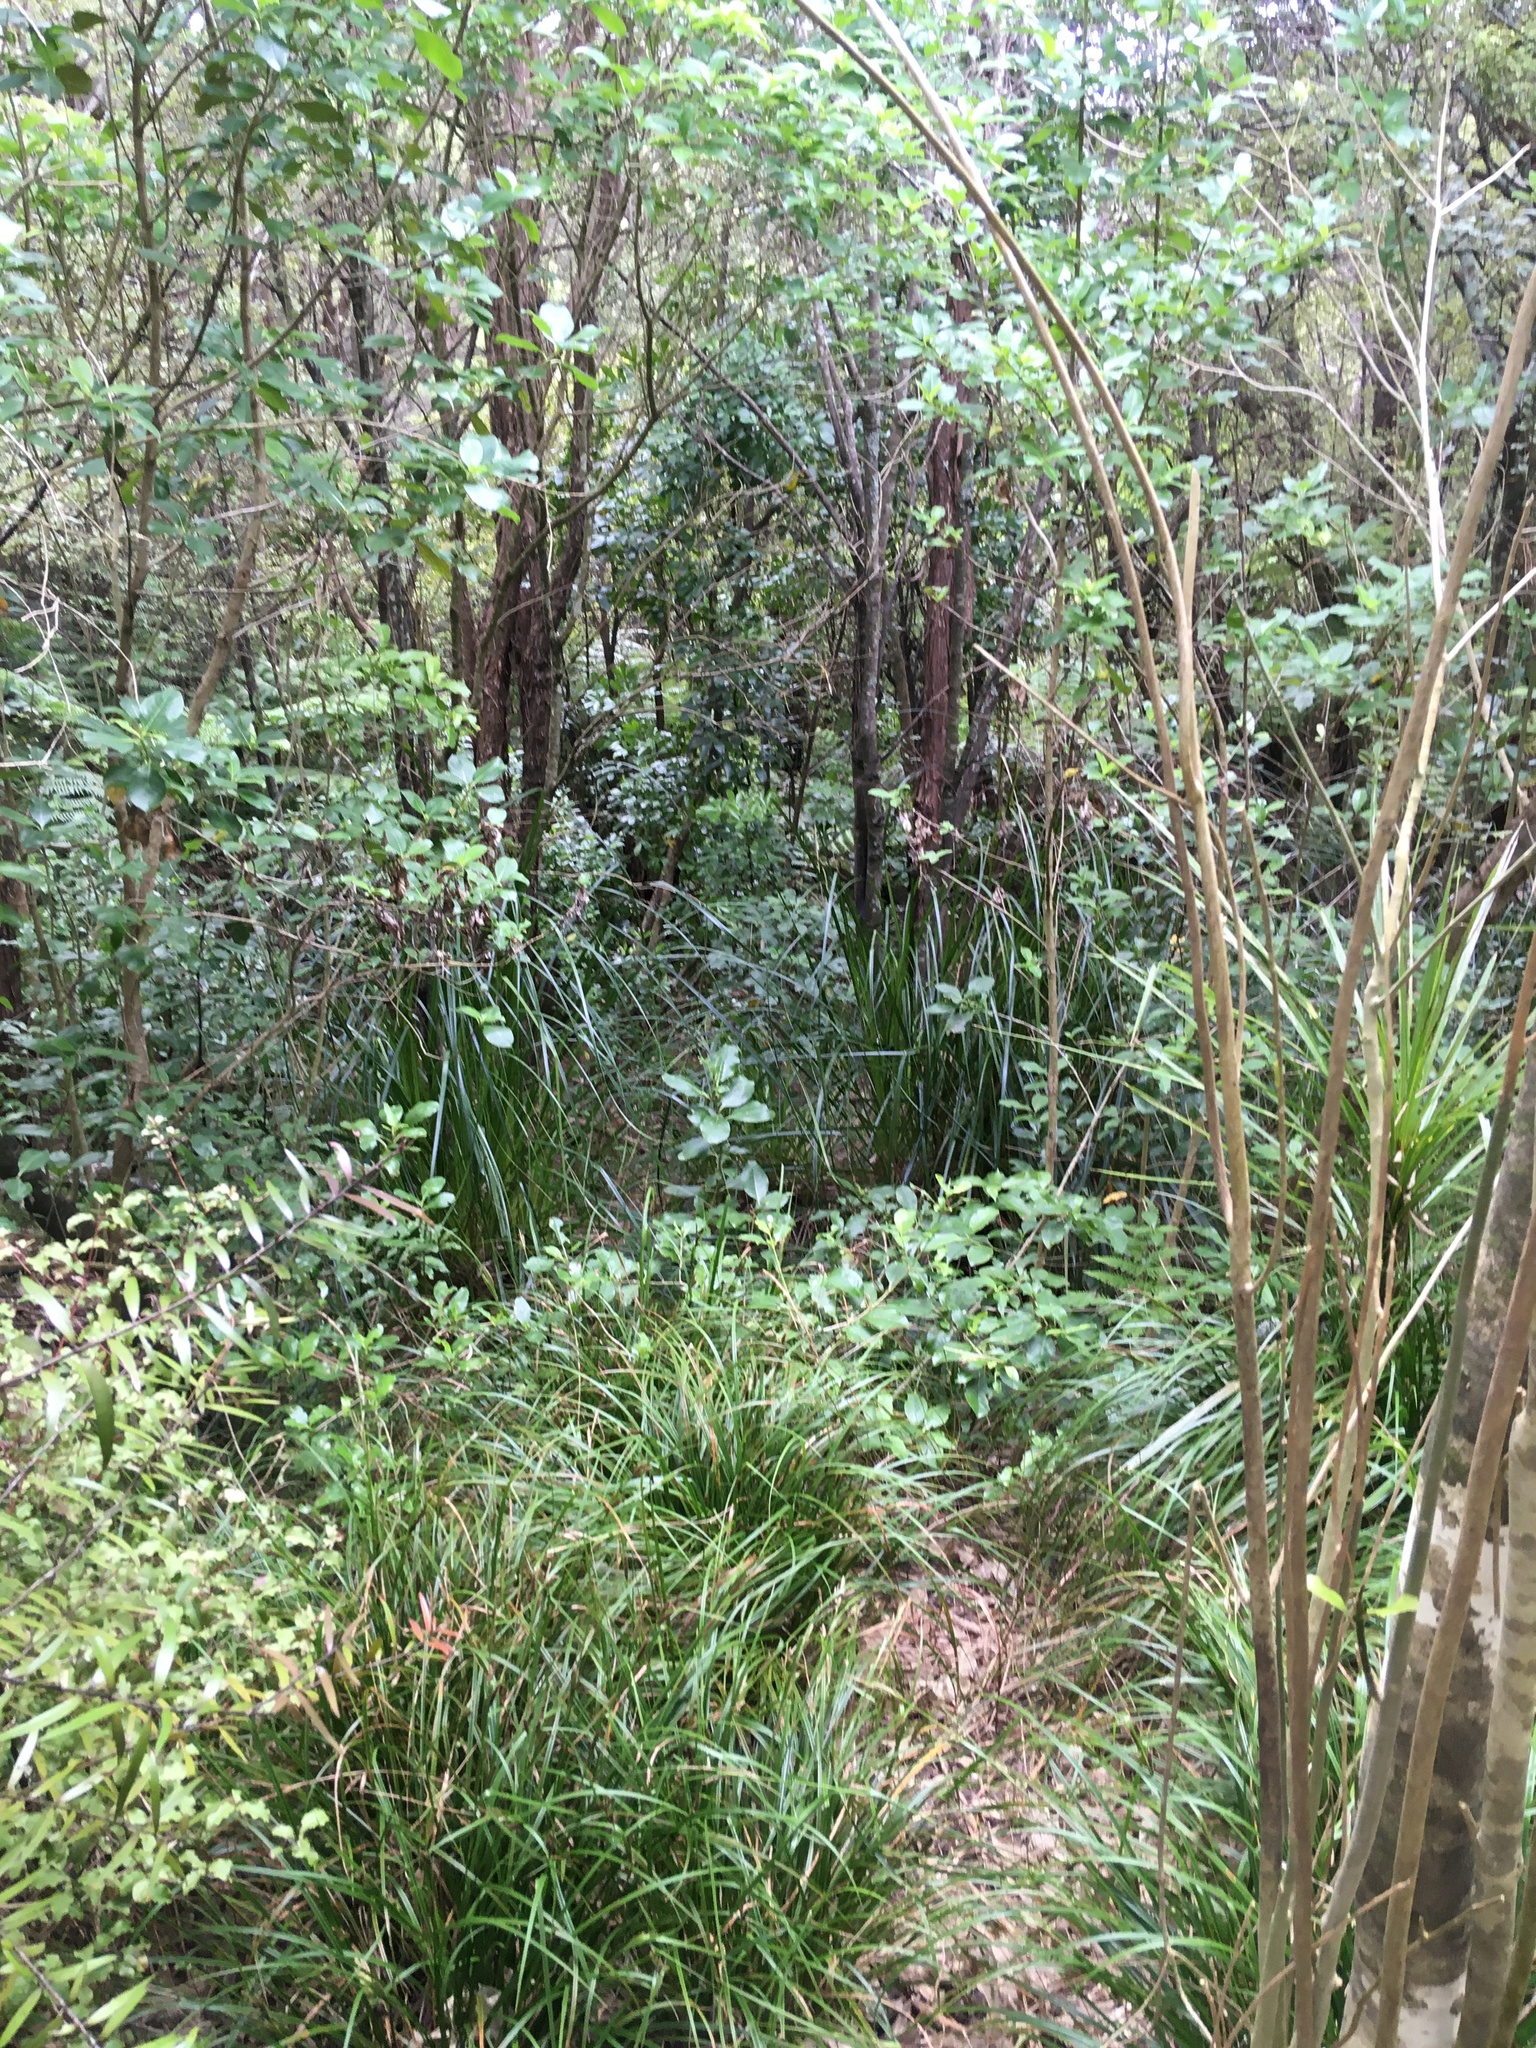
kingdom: Plantae
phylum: Tracheophyta
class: Magnoliopsida
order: Gentianales
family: Rubiaceae
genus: Coprosma
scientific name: Coprosma robusta
